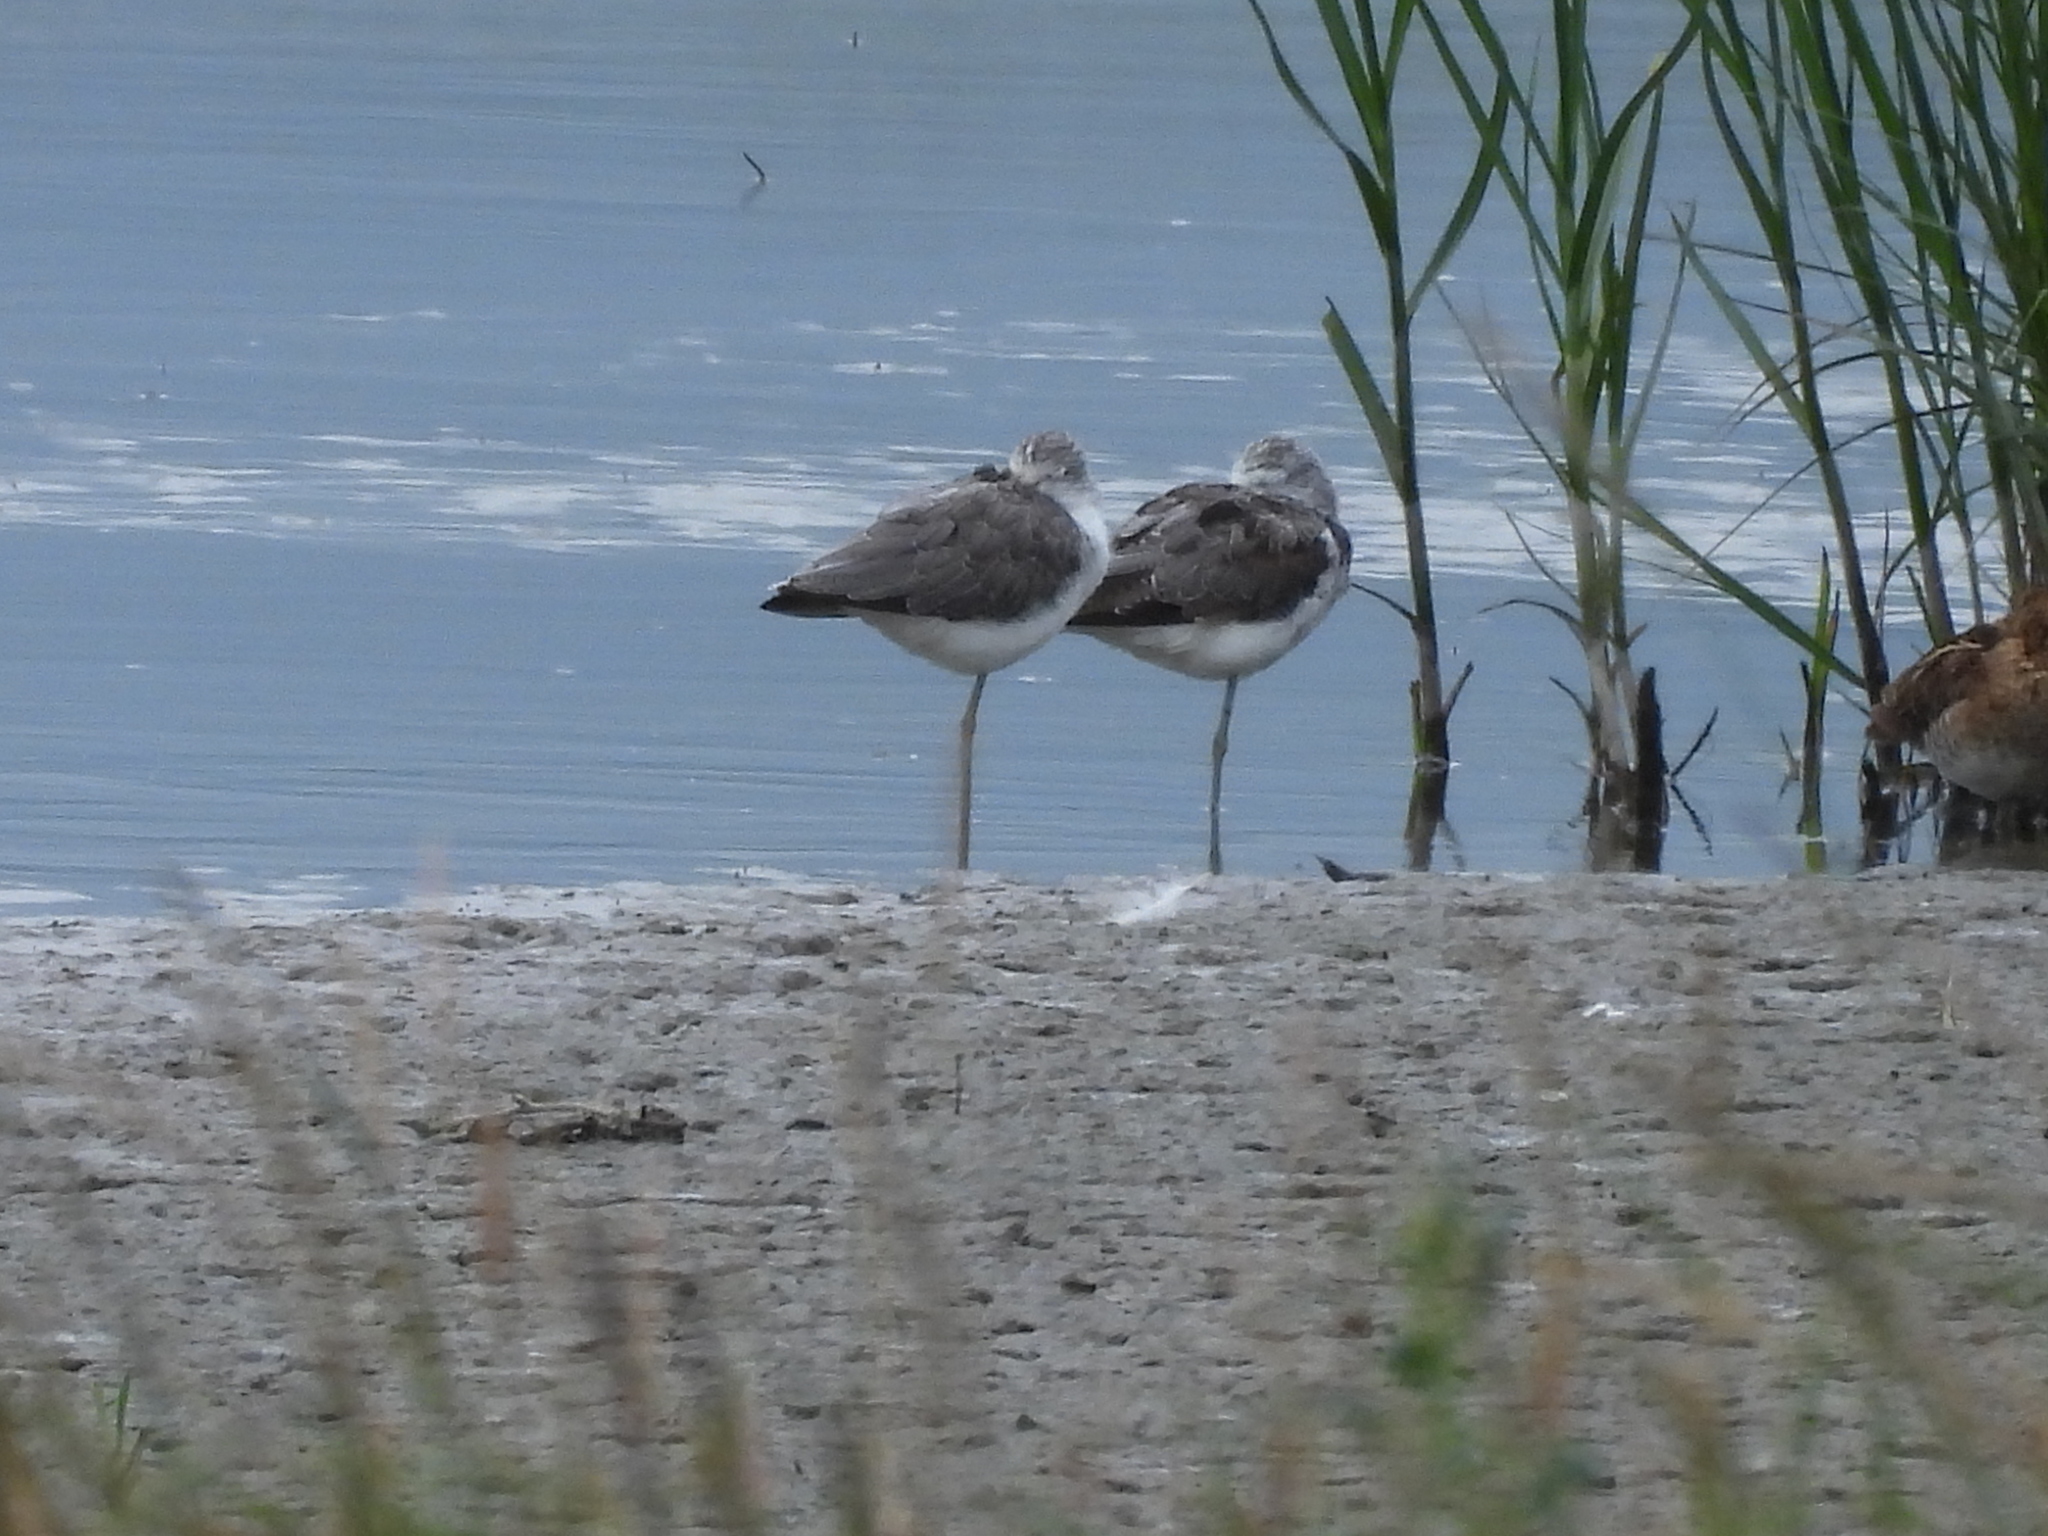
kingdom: Animalia
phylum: Chordata
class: Aves
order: Charadriiformes
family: Scolopacidae
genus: Tringa
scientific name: Tringa nebularia
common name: Common greenshank
